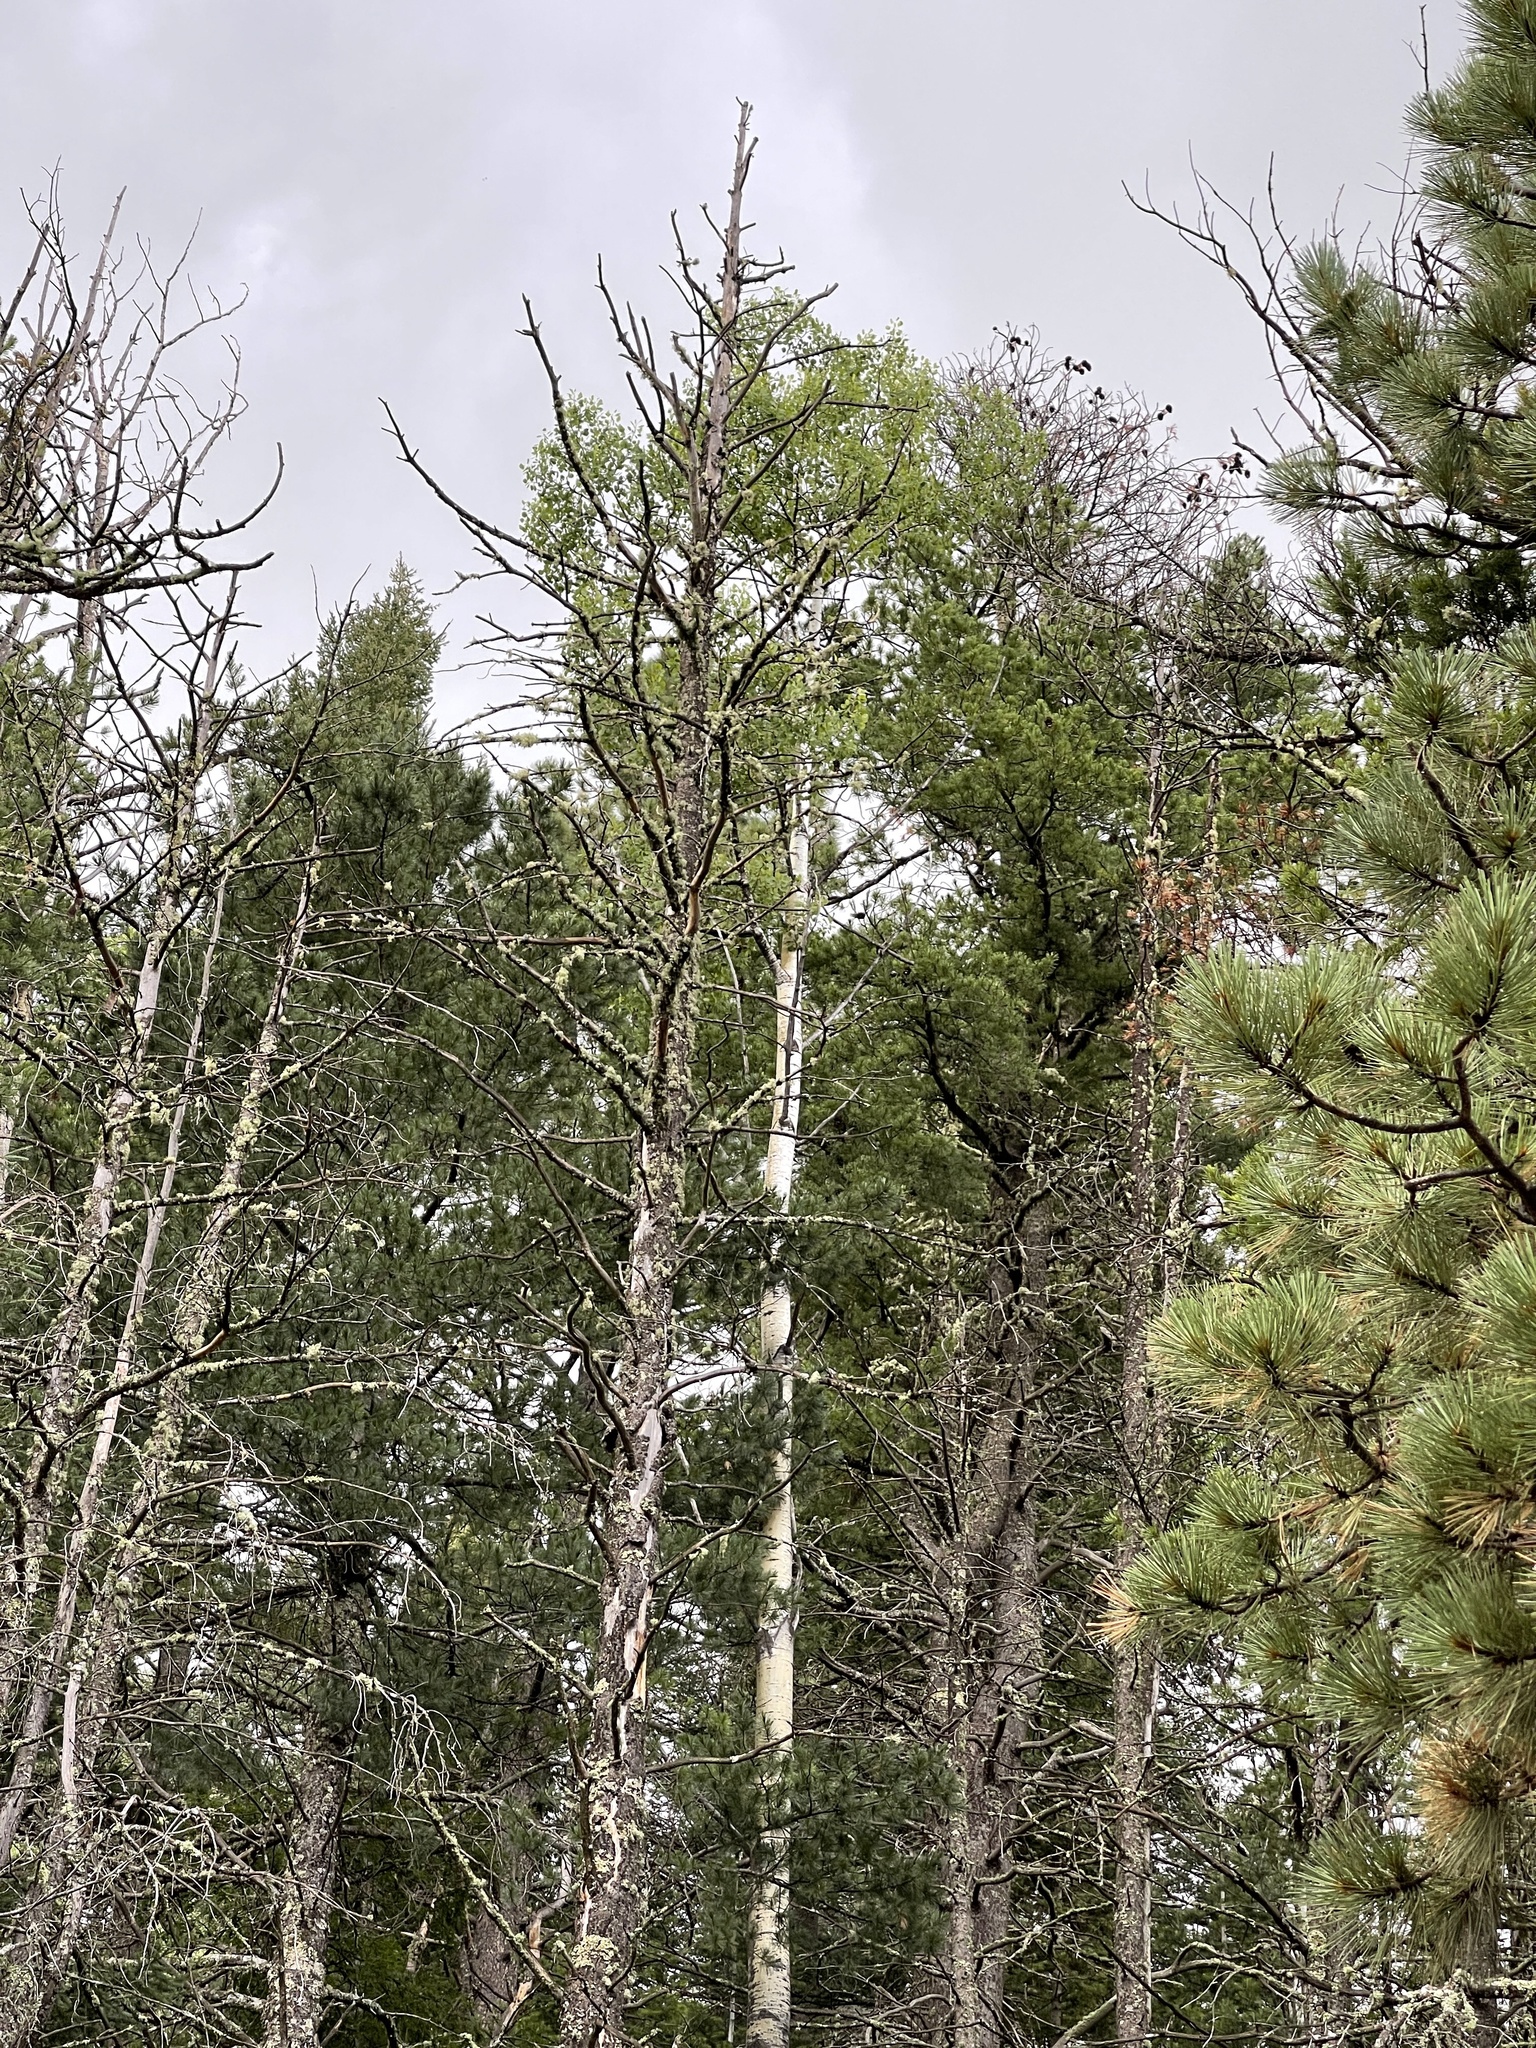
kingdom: Plantae
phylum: Tracheophyta
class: Magnoliopsida
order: Malpighiales
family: Salicaceae
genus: Populus
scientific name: Populus tremuloides
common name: Quaking aspen
